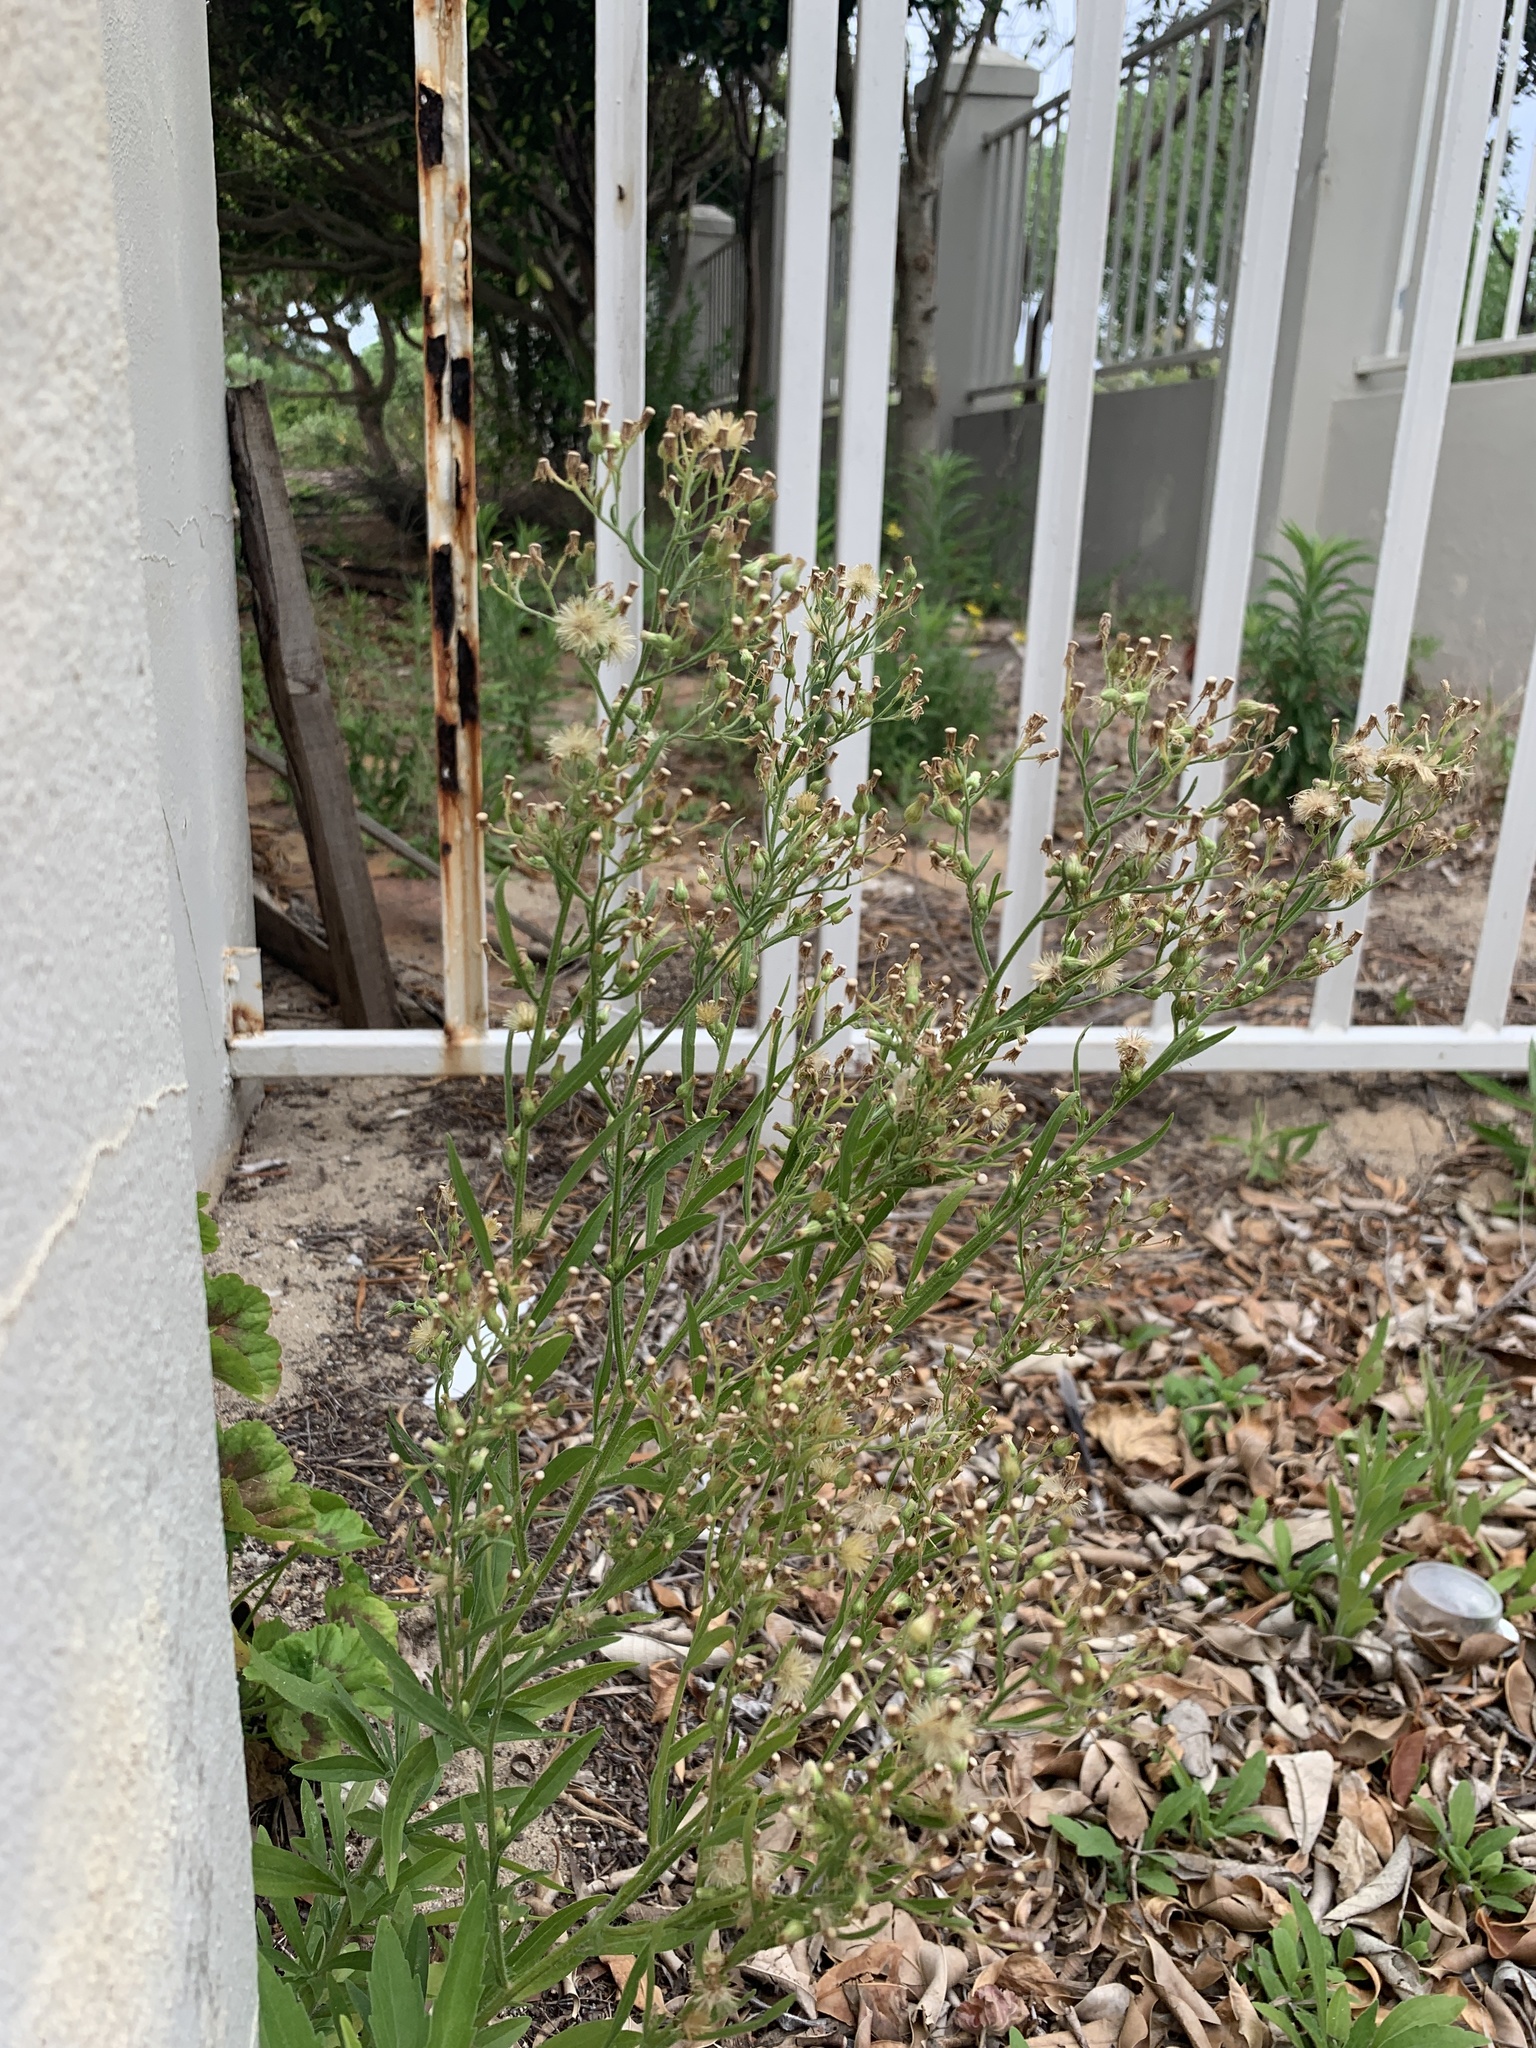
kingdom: Plantae
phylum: Tracheophyta
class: Magnoliopsida
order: Asterales
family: Asteraceae
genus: Erigeron
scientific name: Erigeron sumatrensis
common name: Daisy
